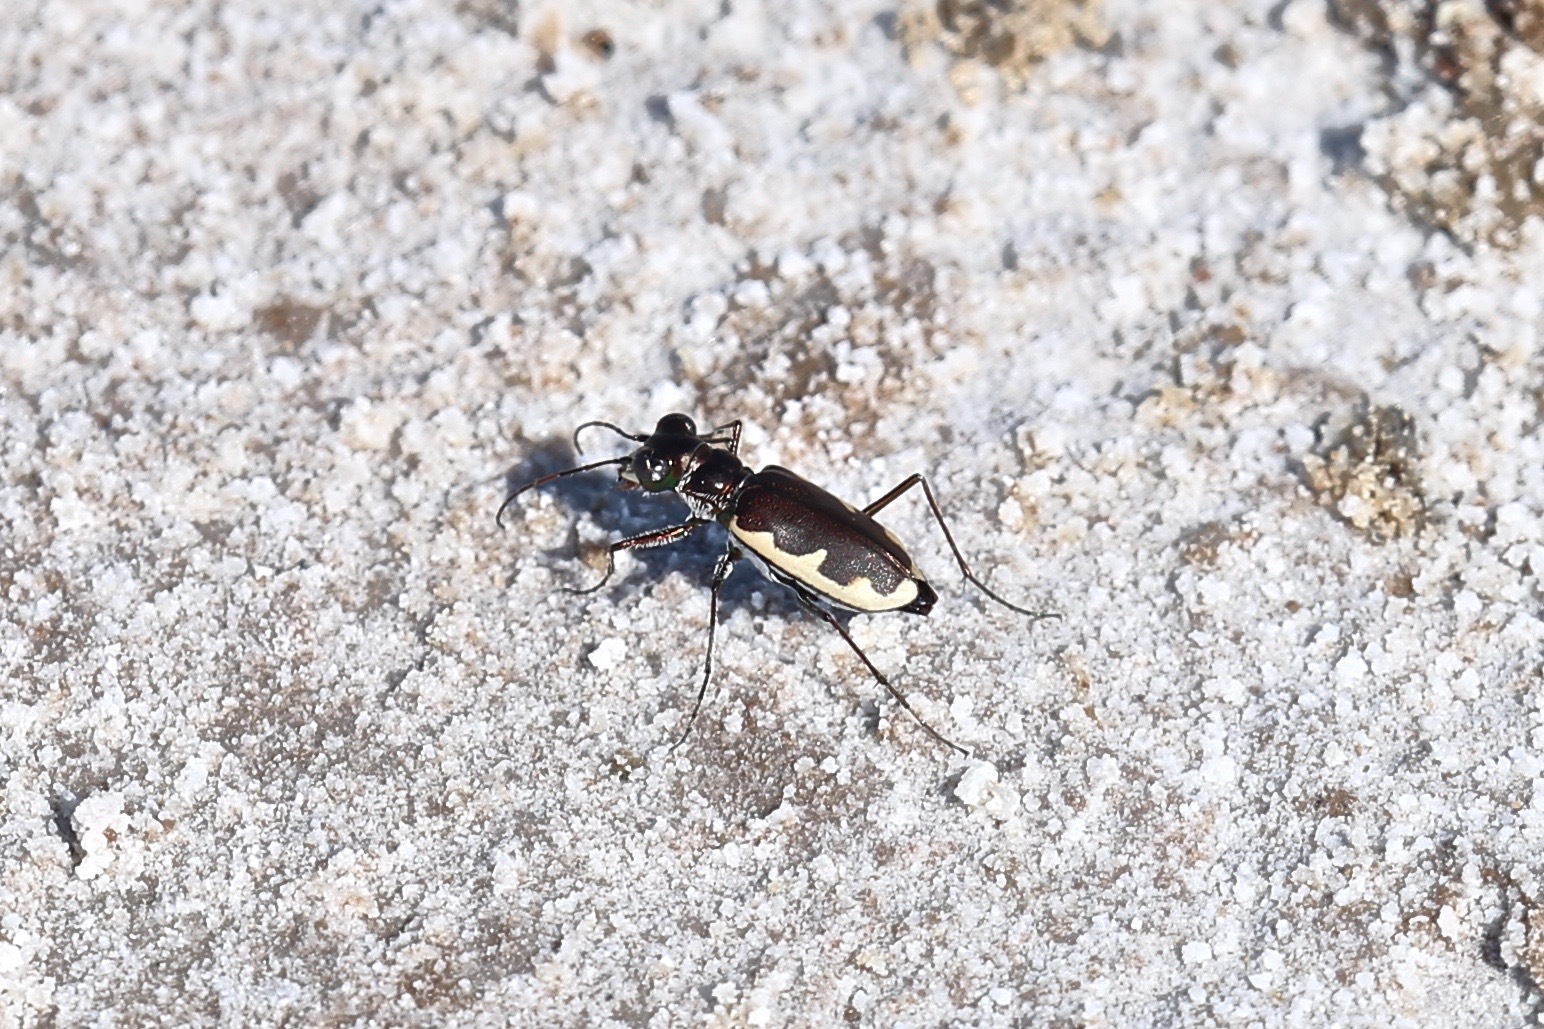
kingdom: Animalia
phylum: Arthropoda
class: Insecta
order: Coleoptera
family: Carabidae
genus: Eunota
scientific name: Eunota circumpicta
